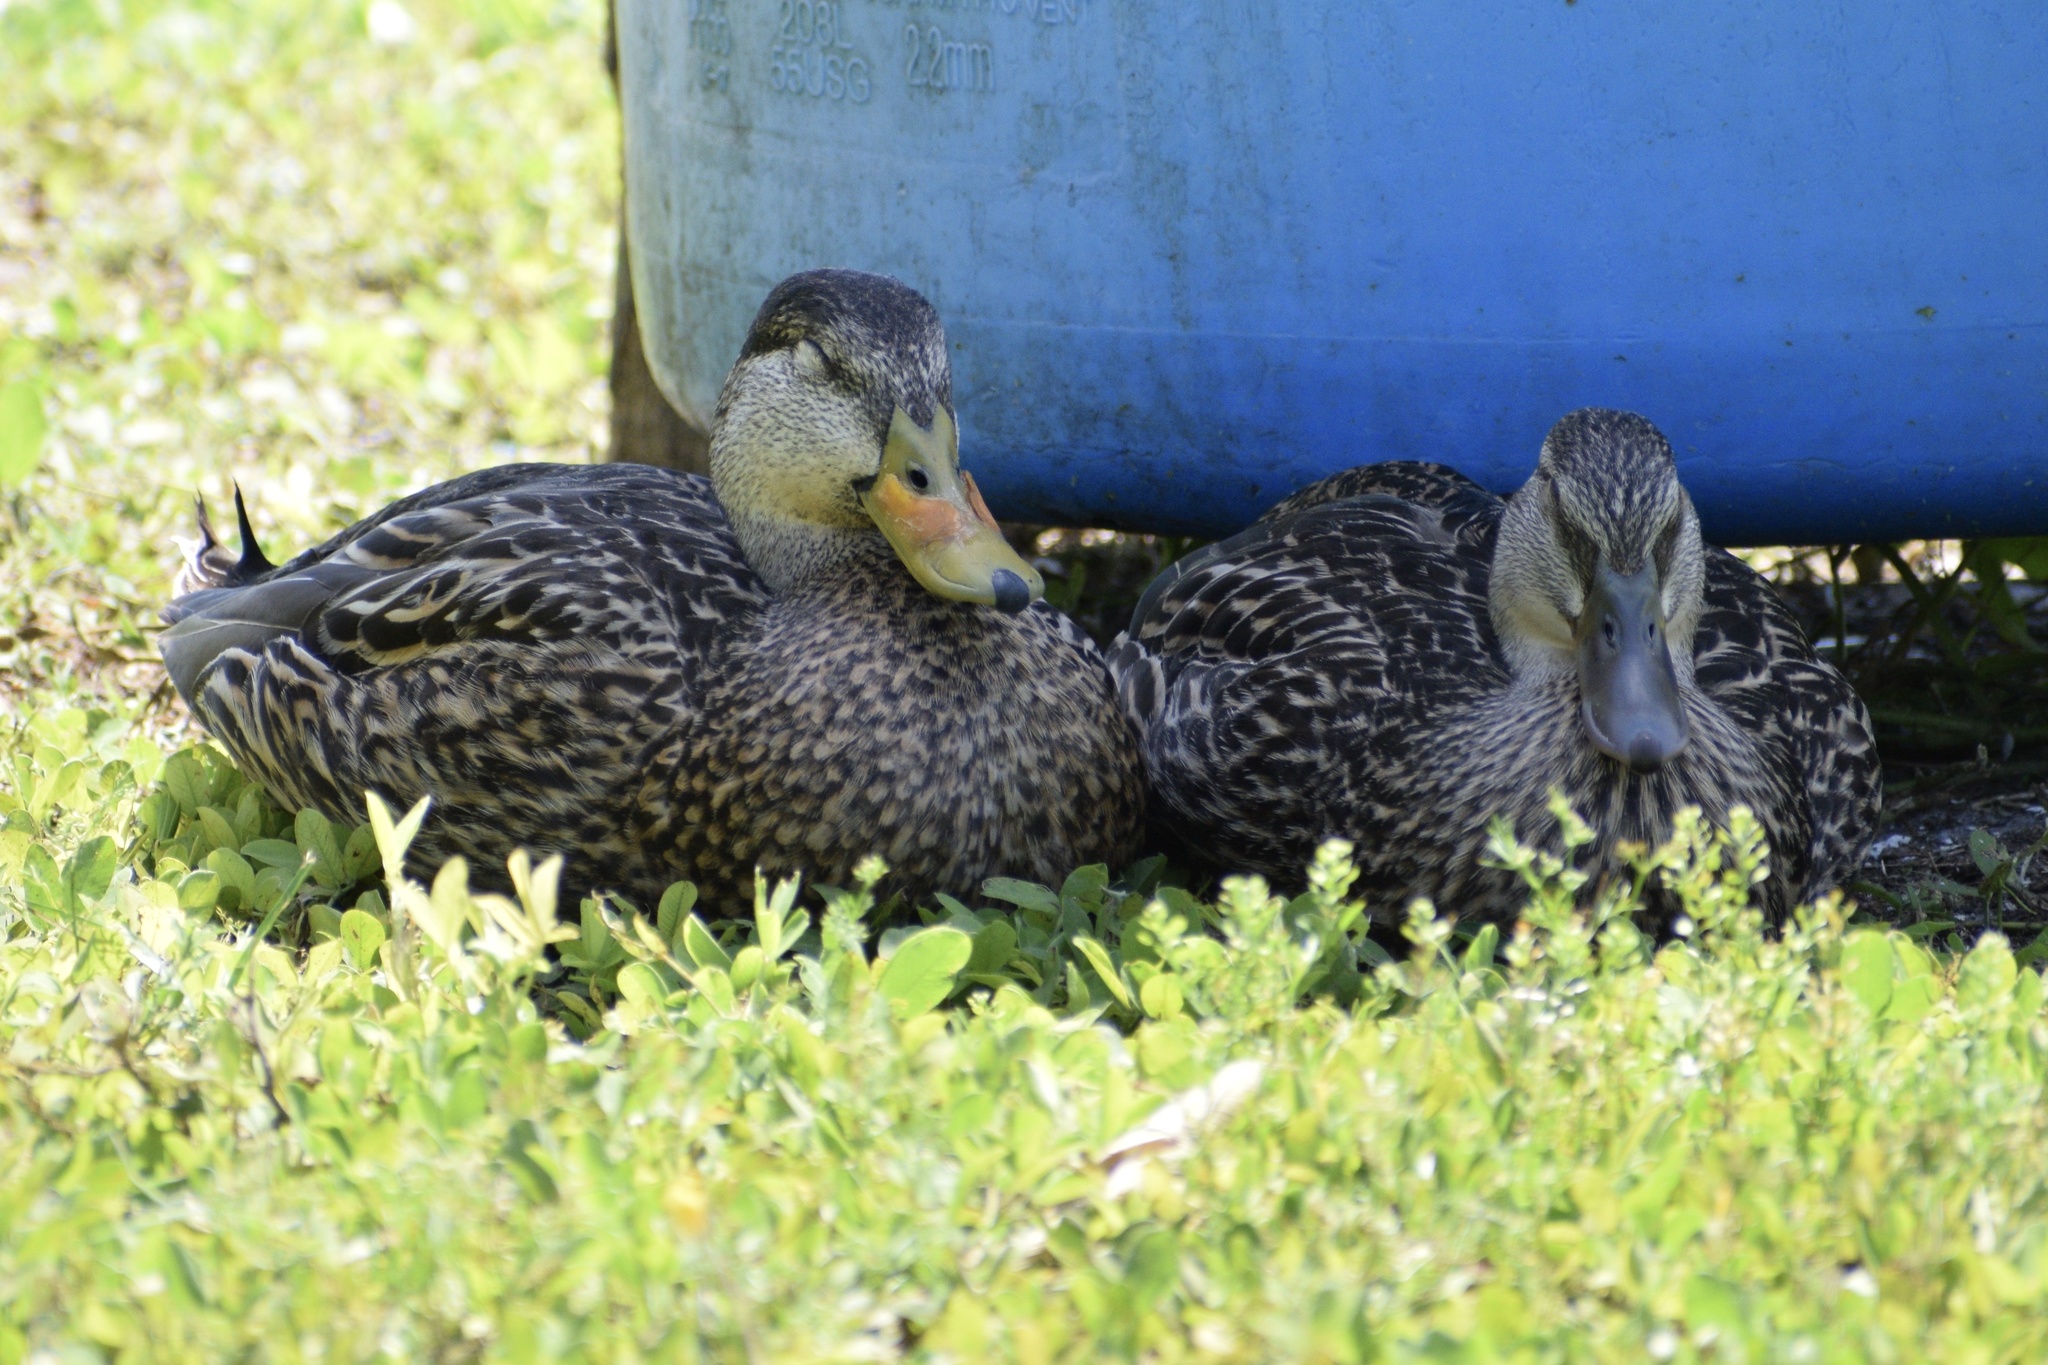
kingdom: Animalia
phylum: Chordata
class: Aves
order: Anseriformes
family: Anatidae
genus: Anas
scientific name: Anas
